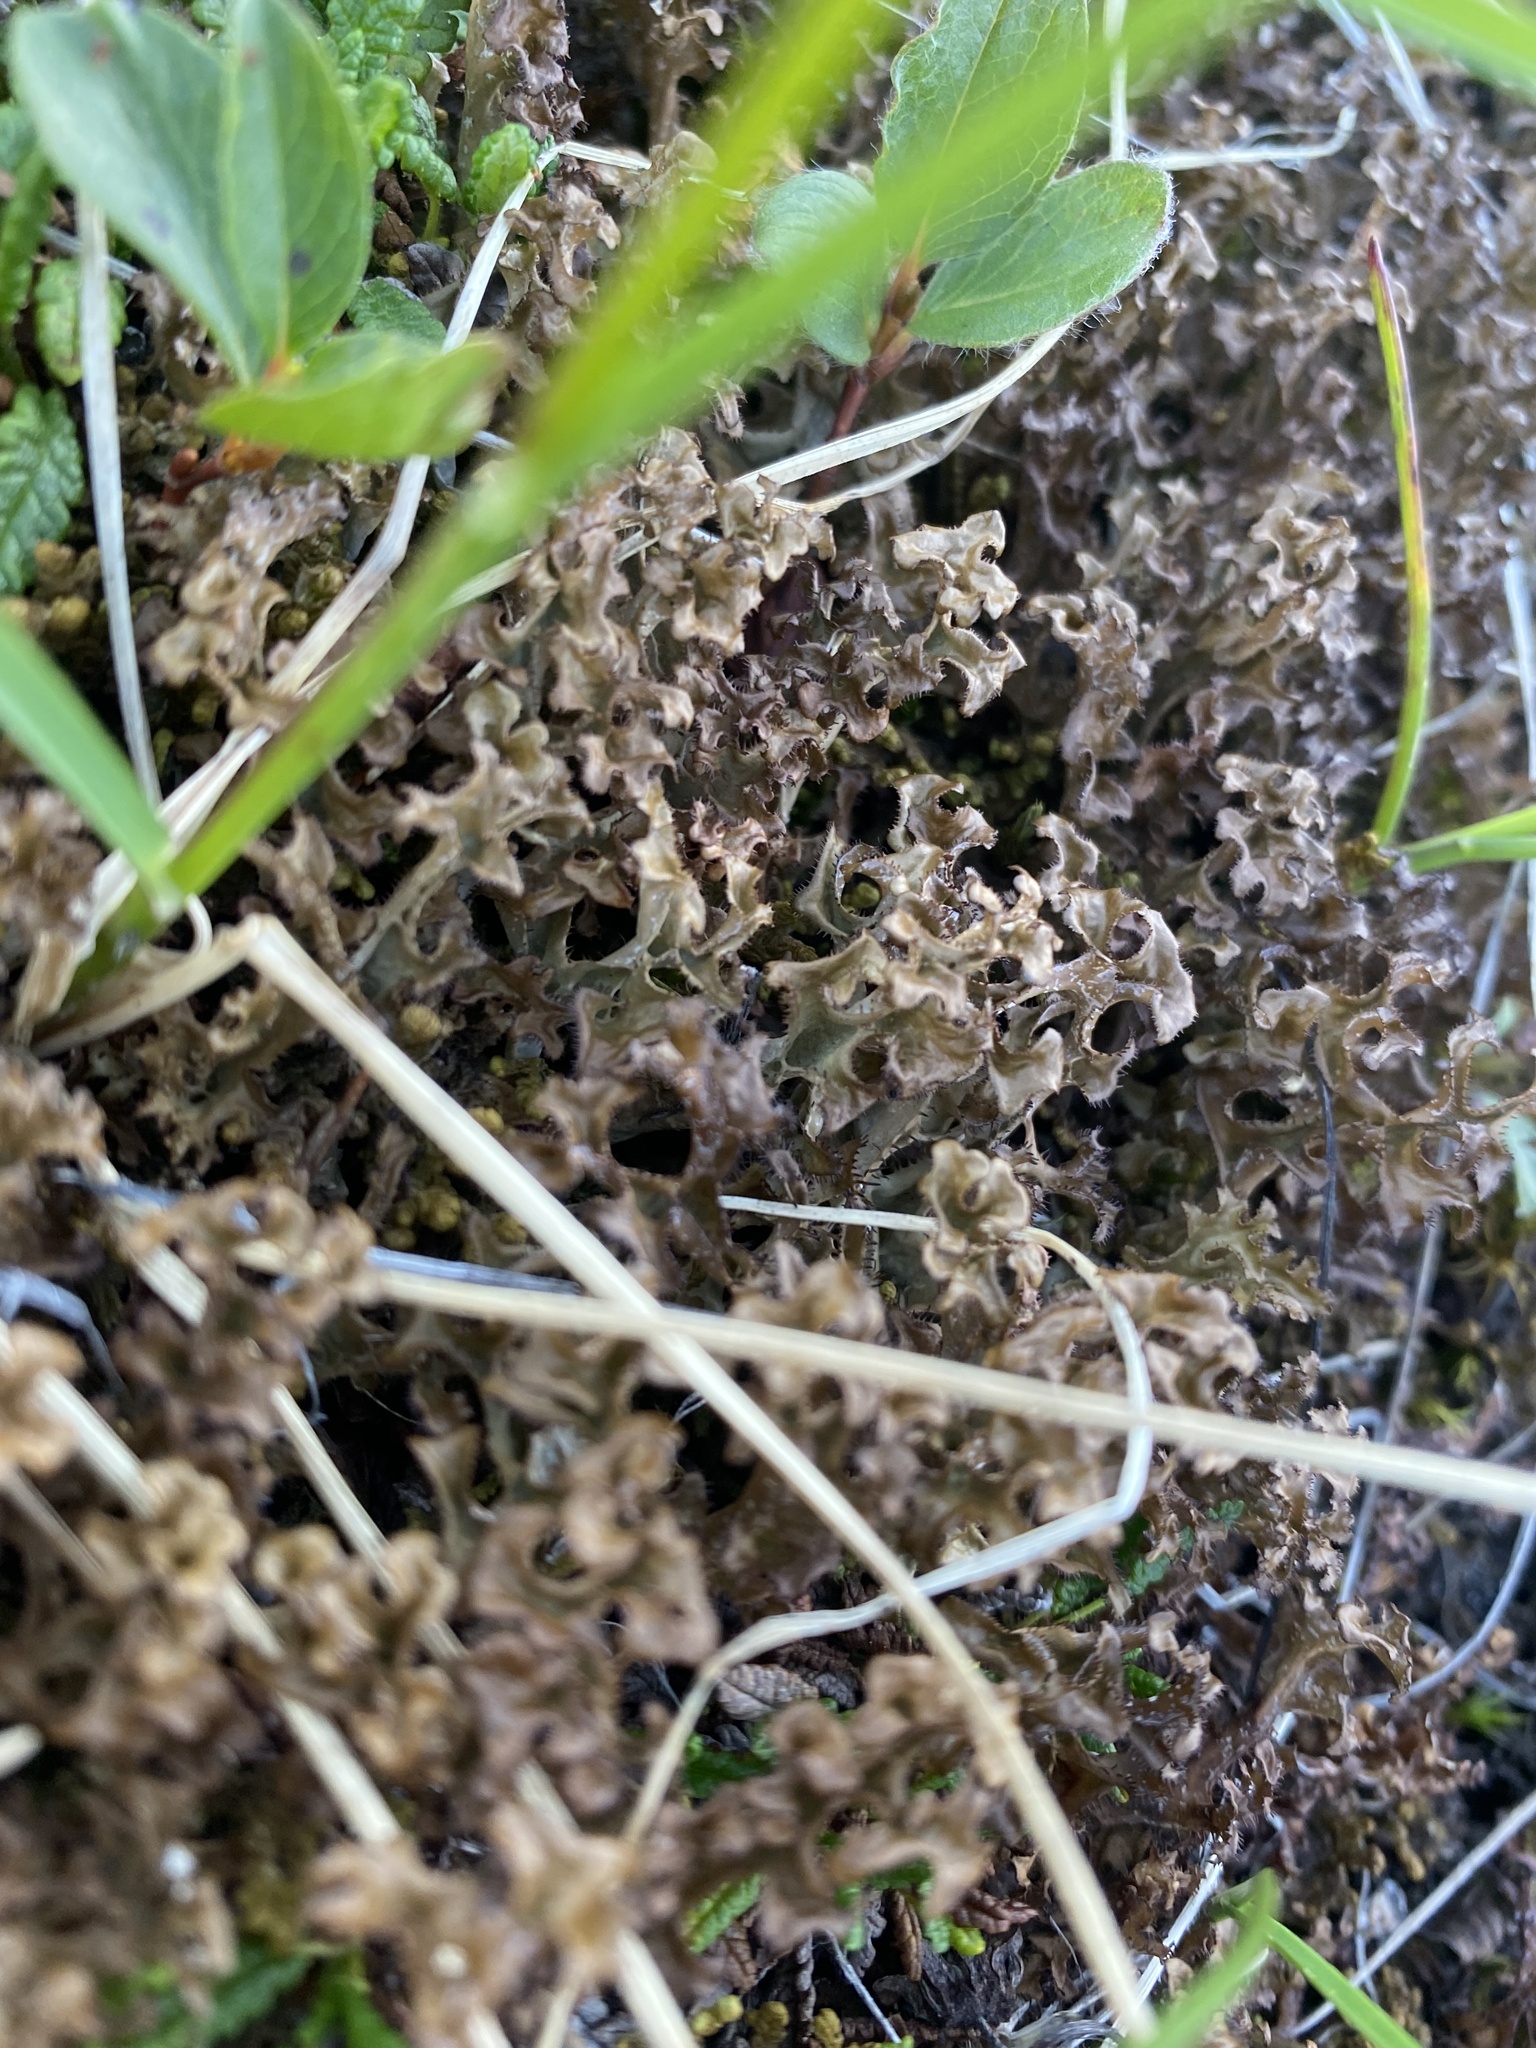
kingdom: Fungi
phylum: Ascomycota
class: Lecanoromycetes
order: Lecanorales
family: Parmeliaceae
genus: Cetraria
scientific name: Cetraria islandica
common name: Iceland lichen
